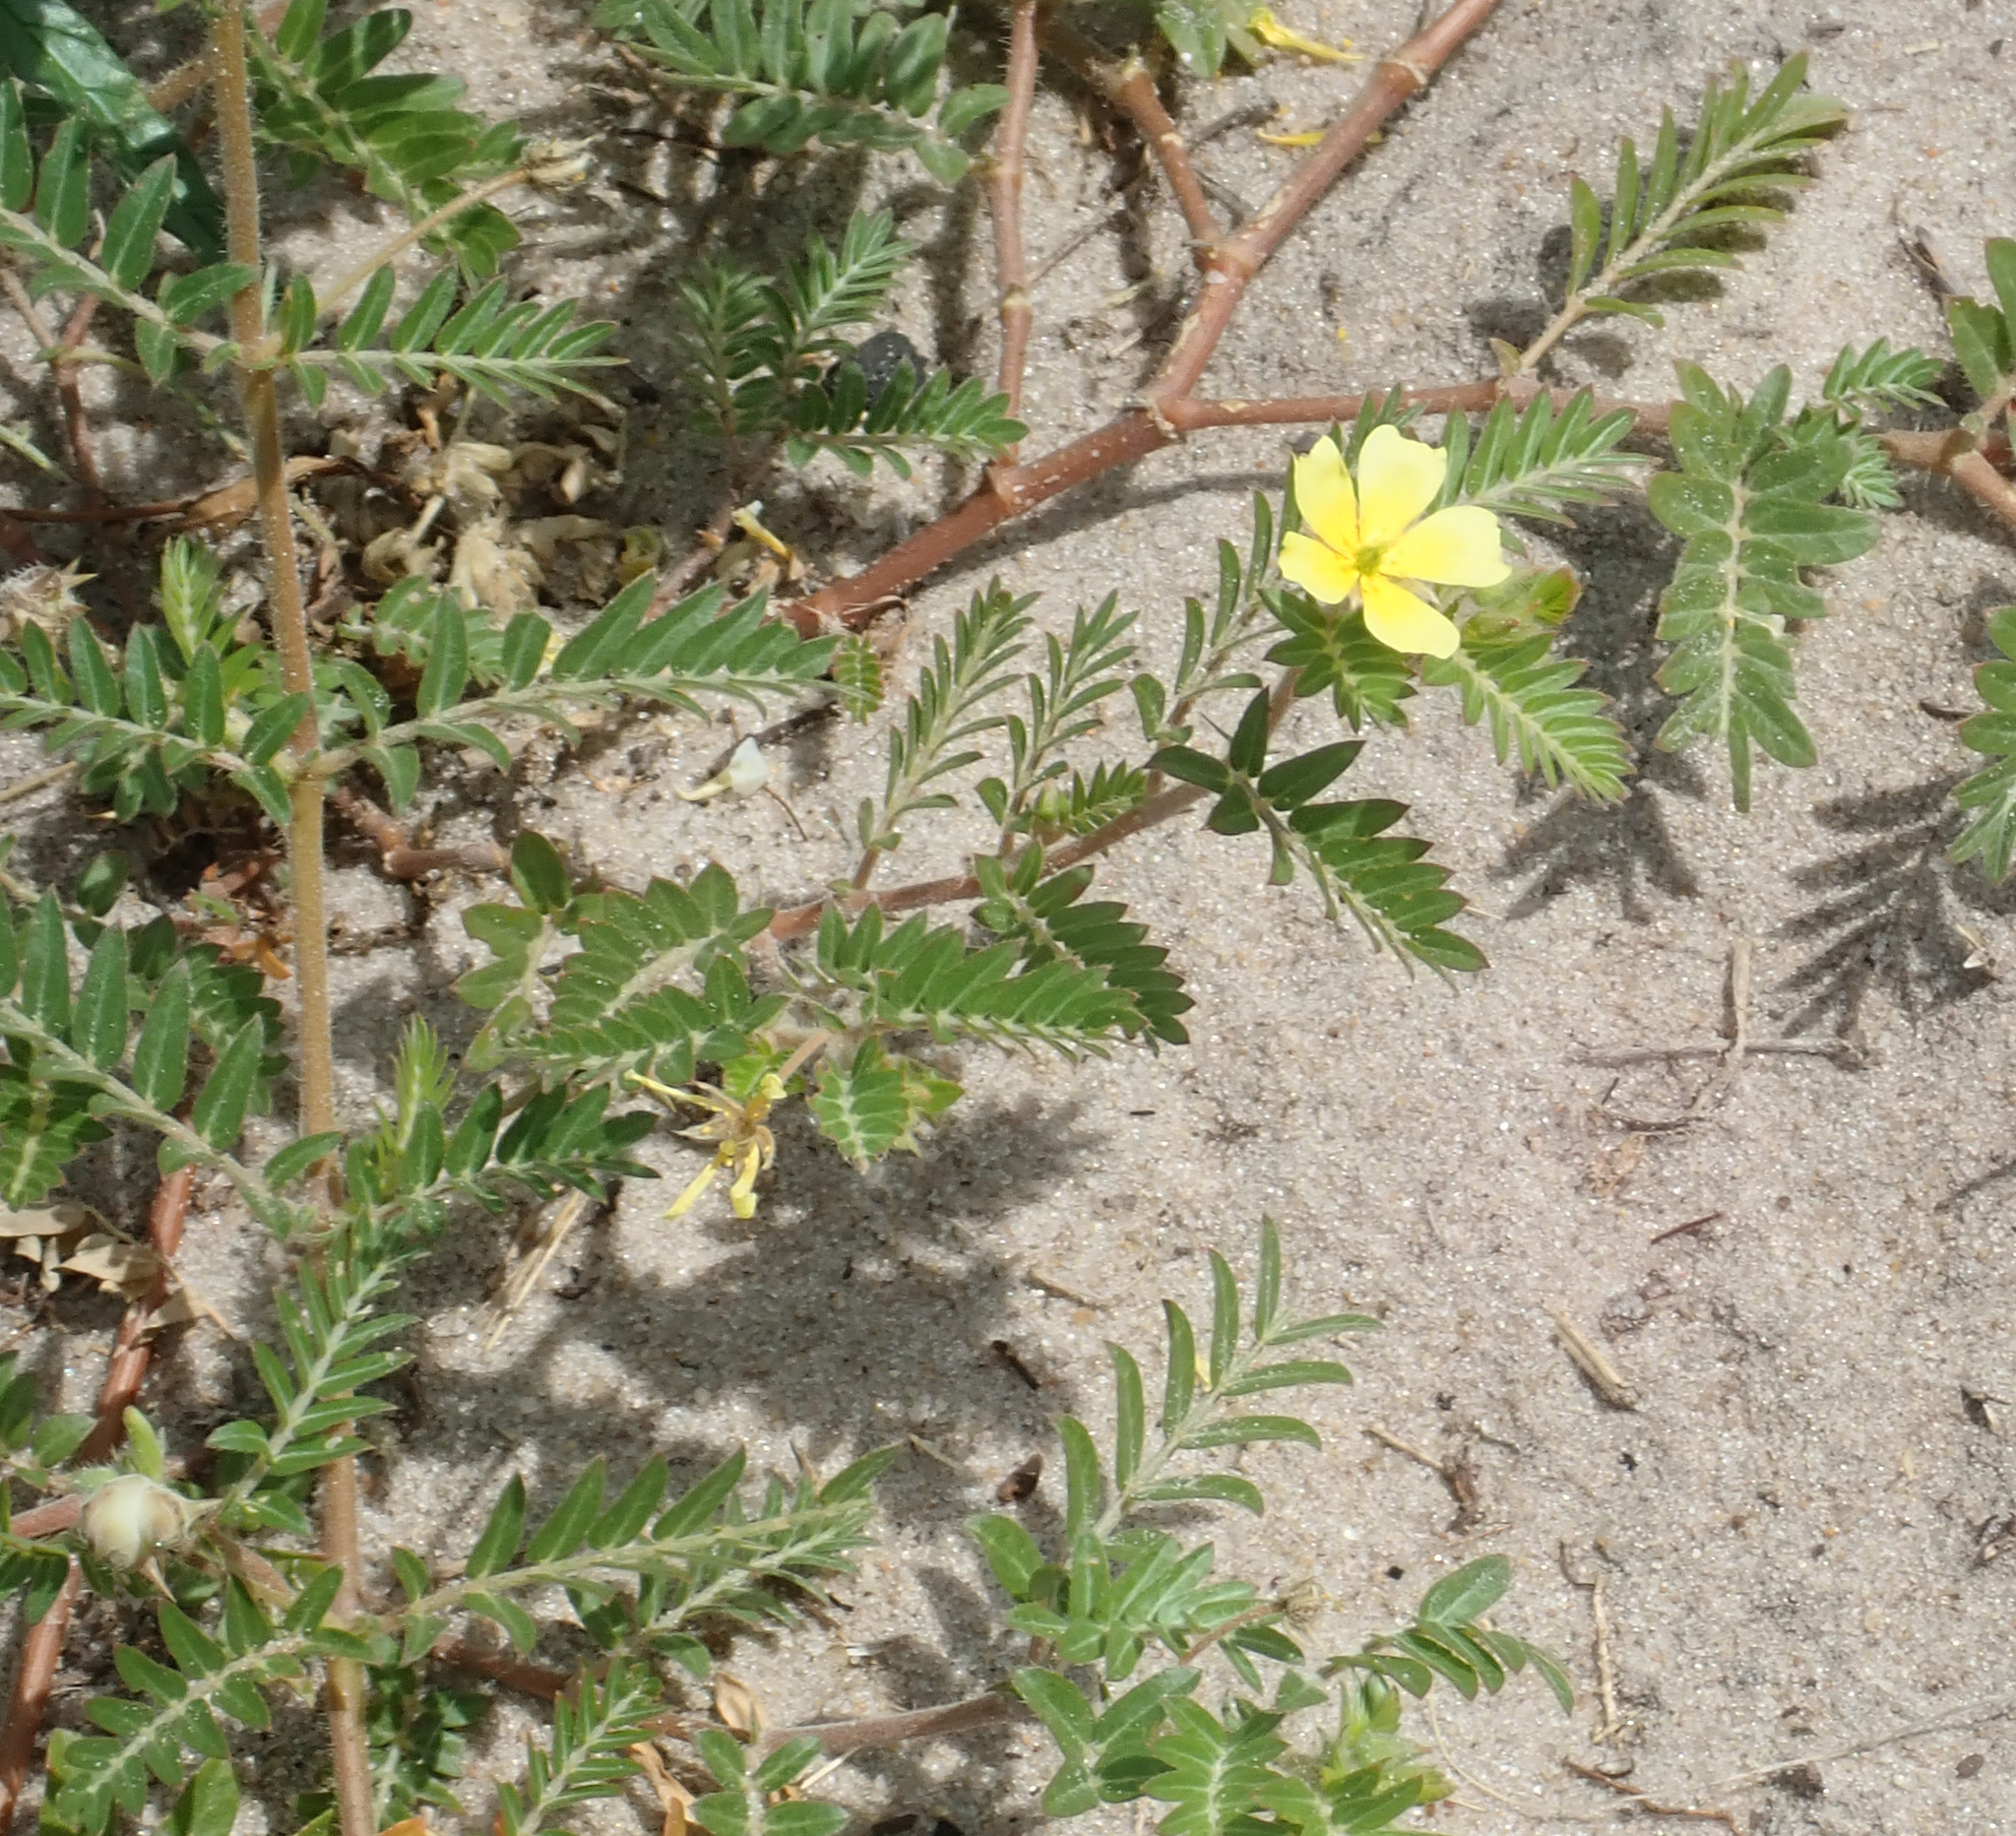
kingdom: Plantae
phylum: Tracheophyta
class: Magnoliopsida
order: Zygophyllales
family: Zygophyllaceae
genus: Tribulus
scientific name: Tribulus terrestris
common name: Puncturevine
